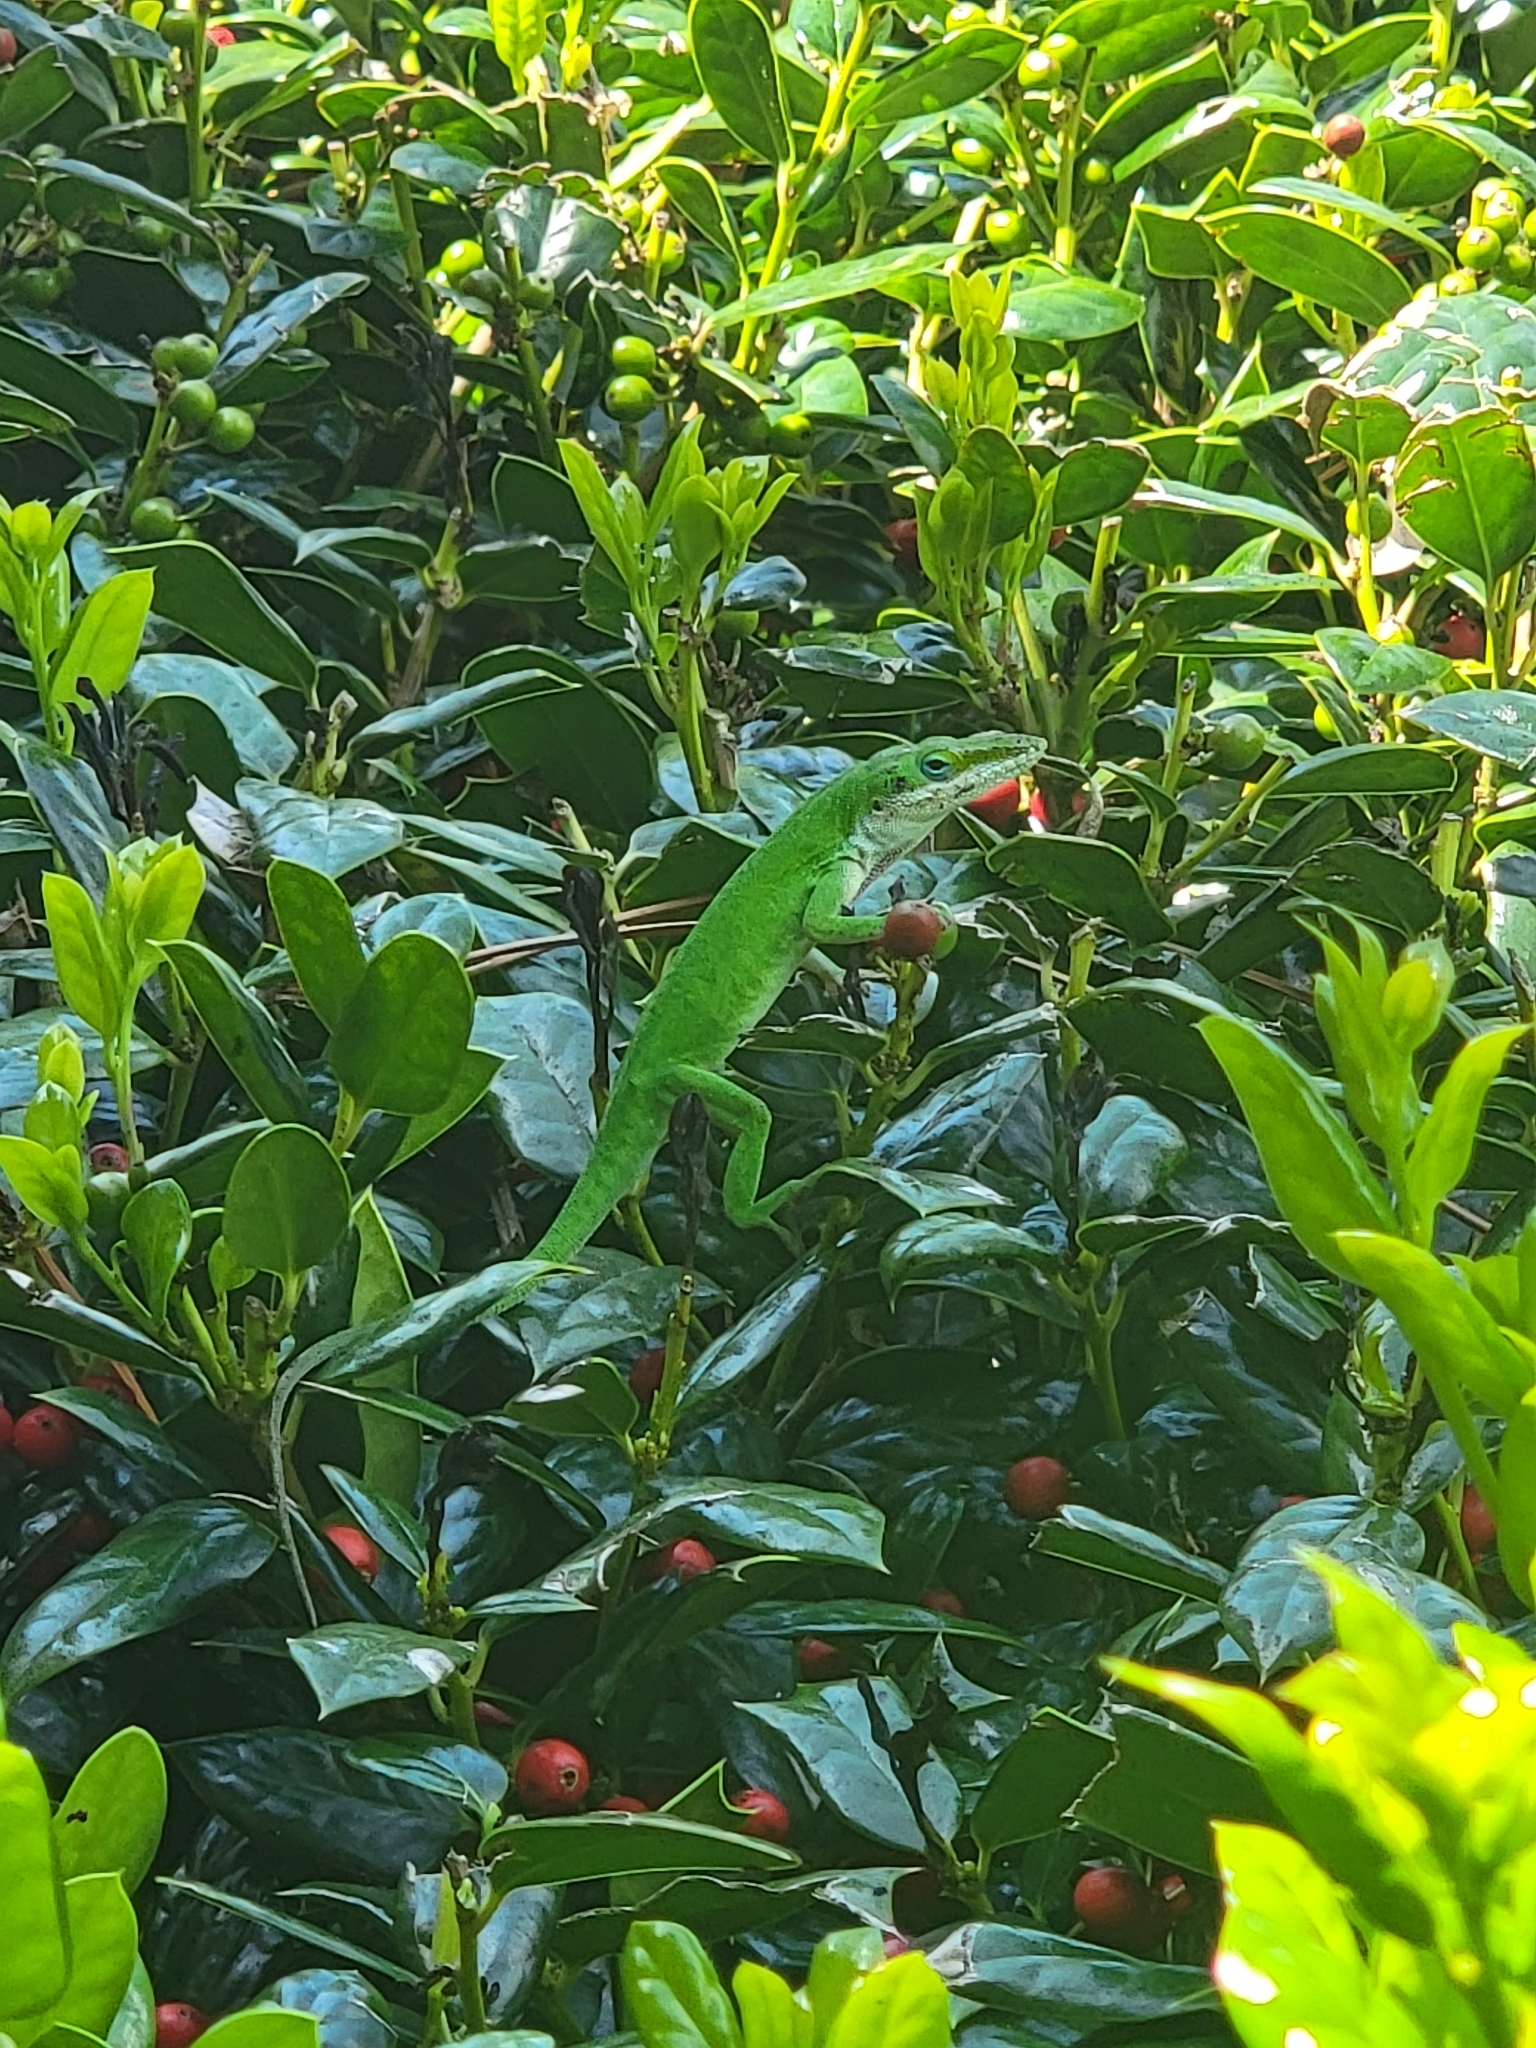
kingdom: Animalia
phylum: Chordata
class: Squamata
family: Dactyloidae
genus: Anolis
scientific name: Anolis carolinensis
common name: Green anole
